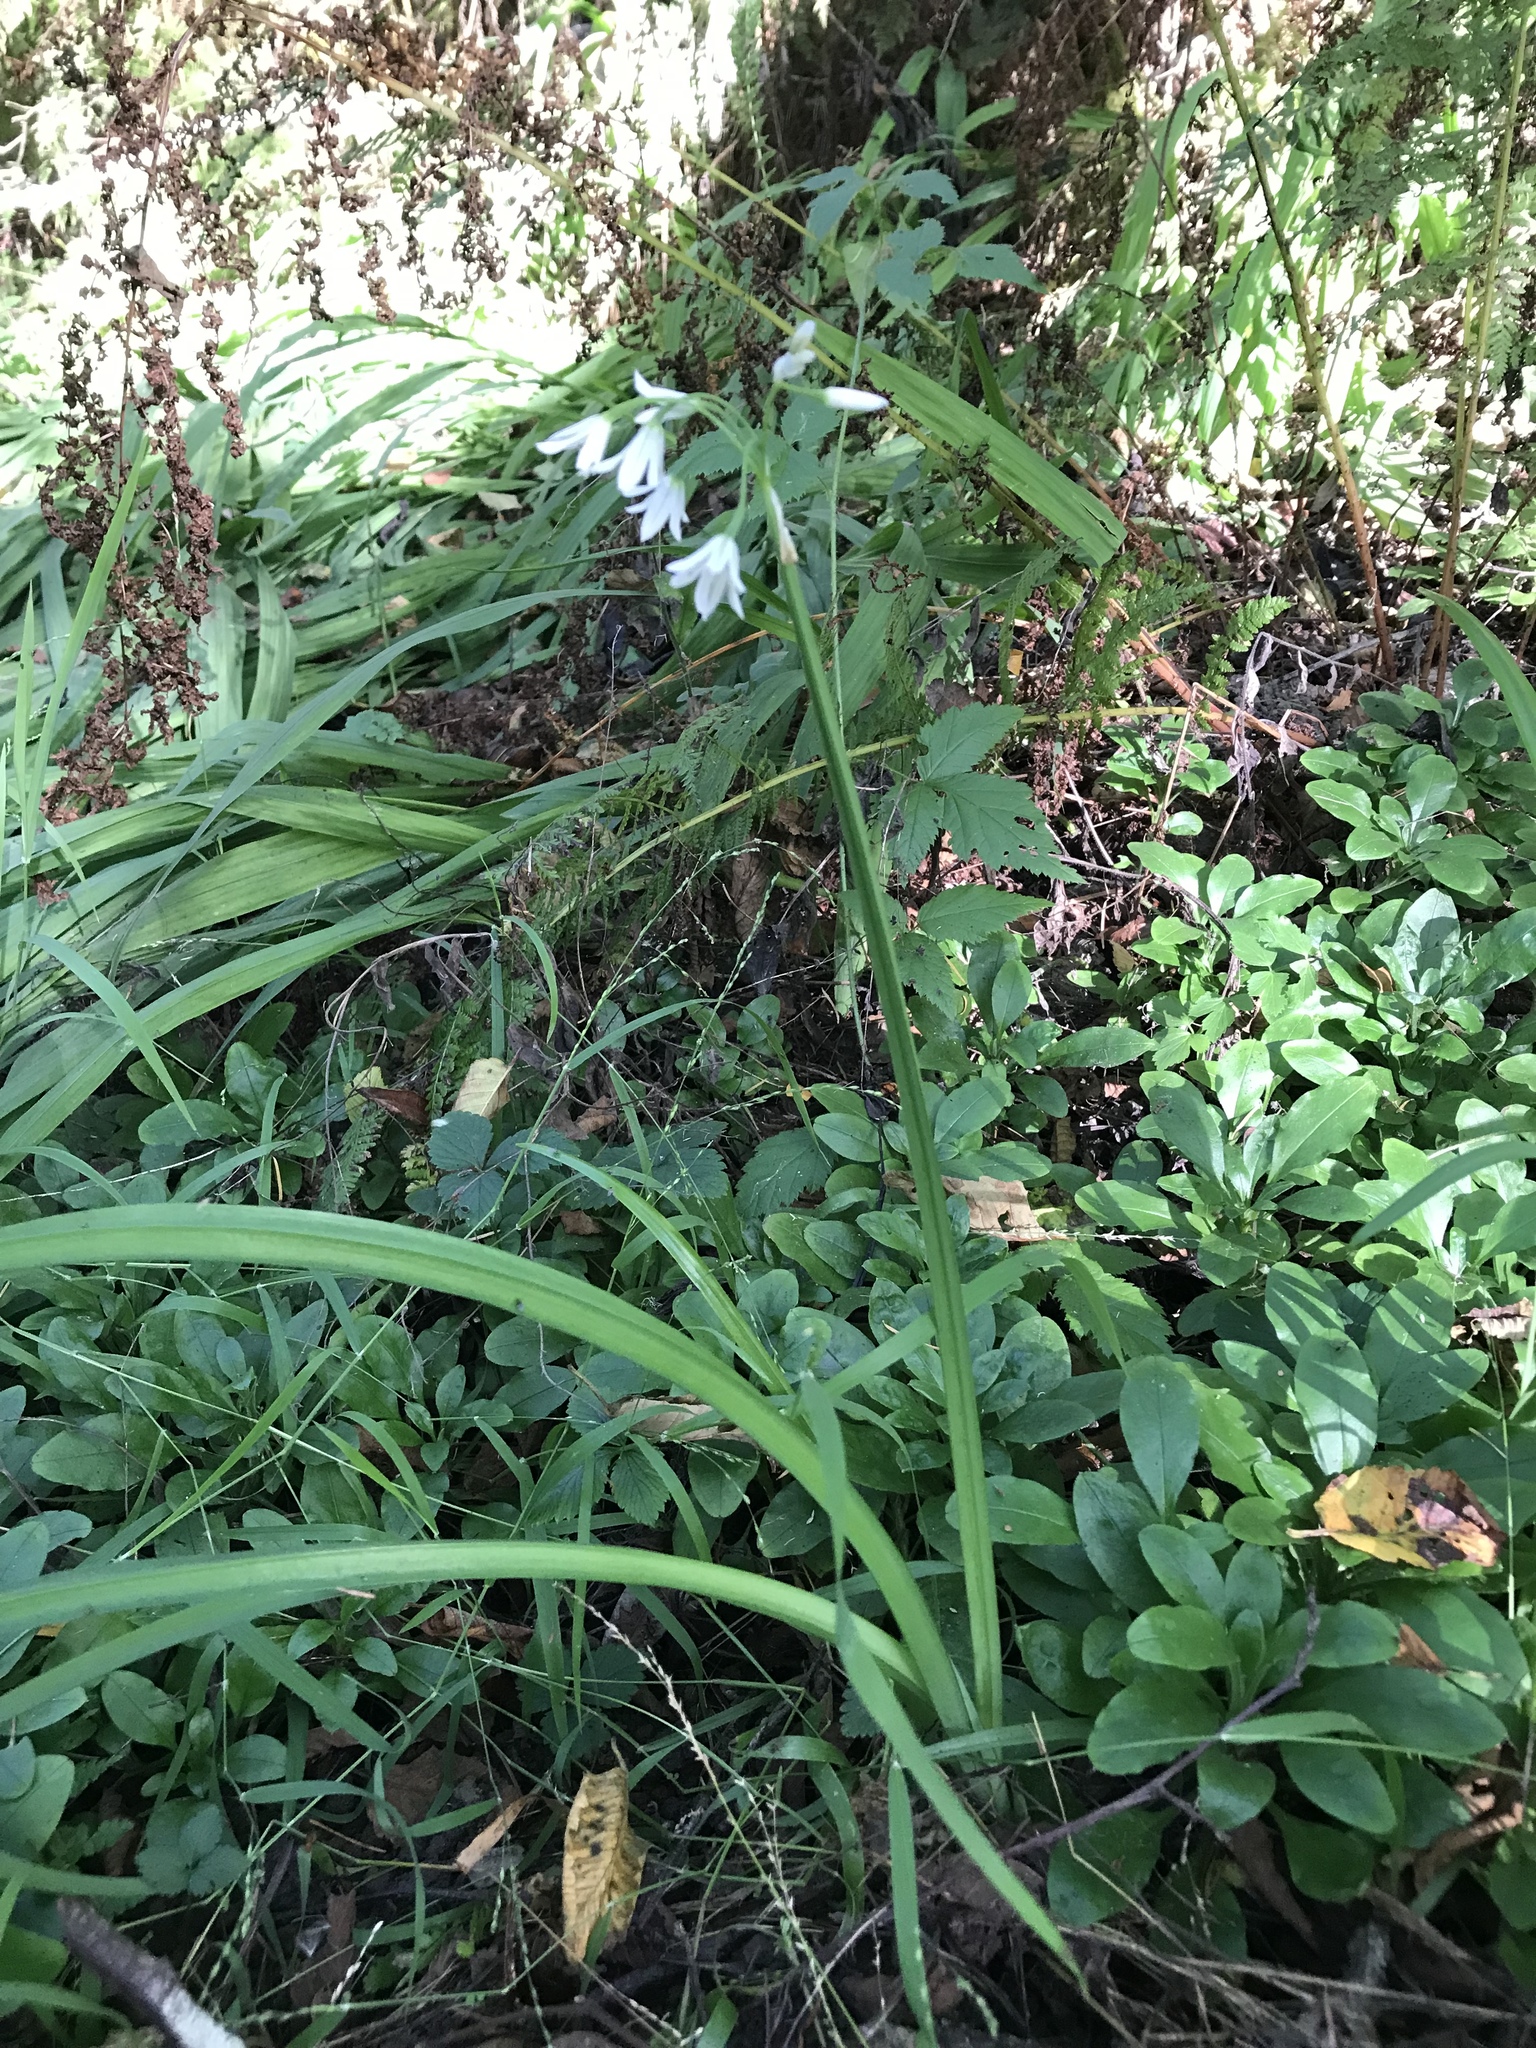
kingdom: Plantae
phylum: Tracheophyta
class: Liliopsida
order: Asparagales
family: Amaryllidaceae
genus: Allium
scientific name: Allium triquetrum
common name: Three-cornered garlic
